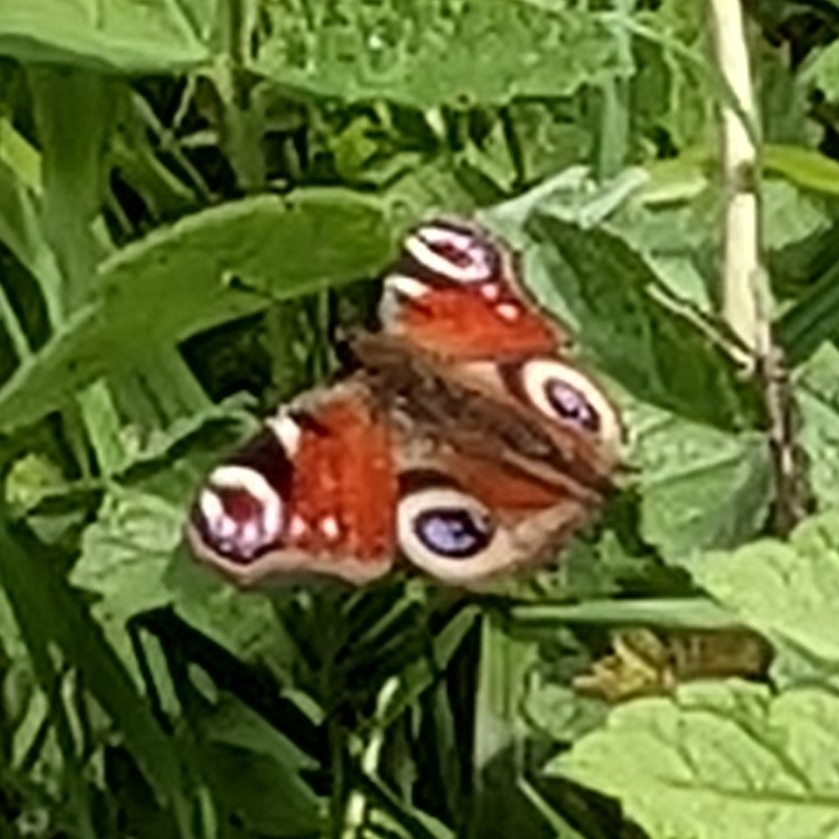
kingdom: Animalia
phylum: Arthropoda
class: Insecta
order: Lepidoptera
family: Nymphalidae
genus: Aglais
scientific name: Aglais io
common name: Peacock
